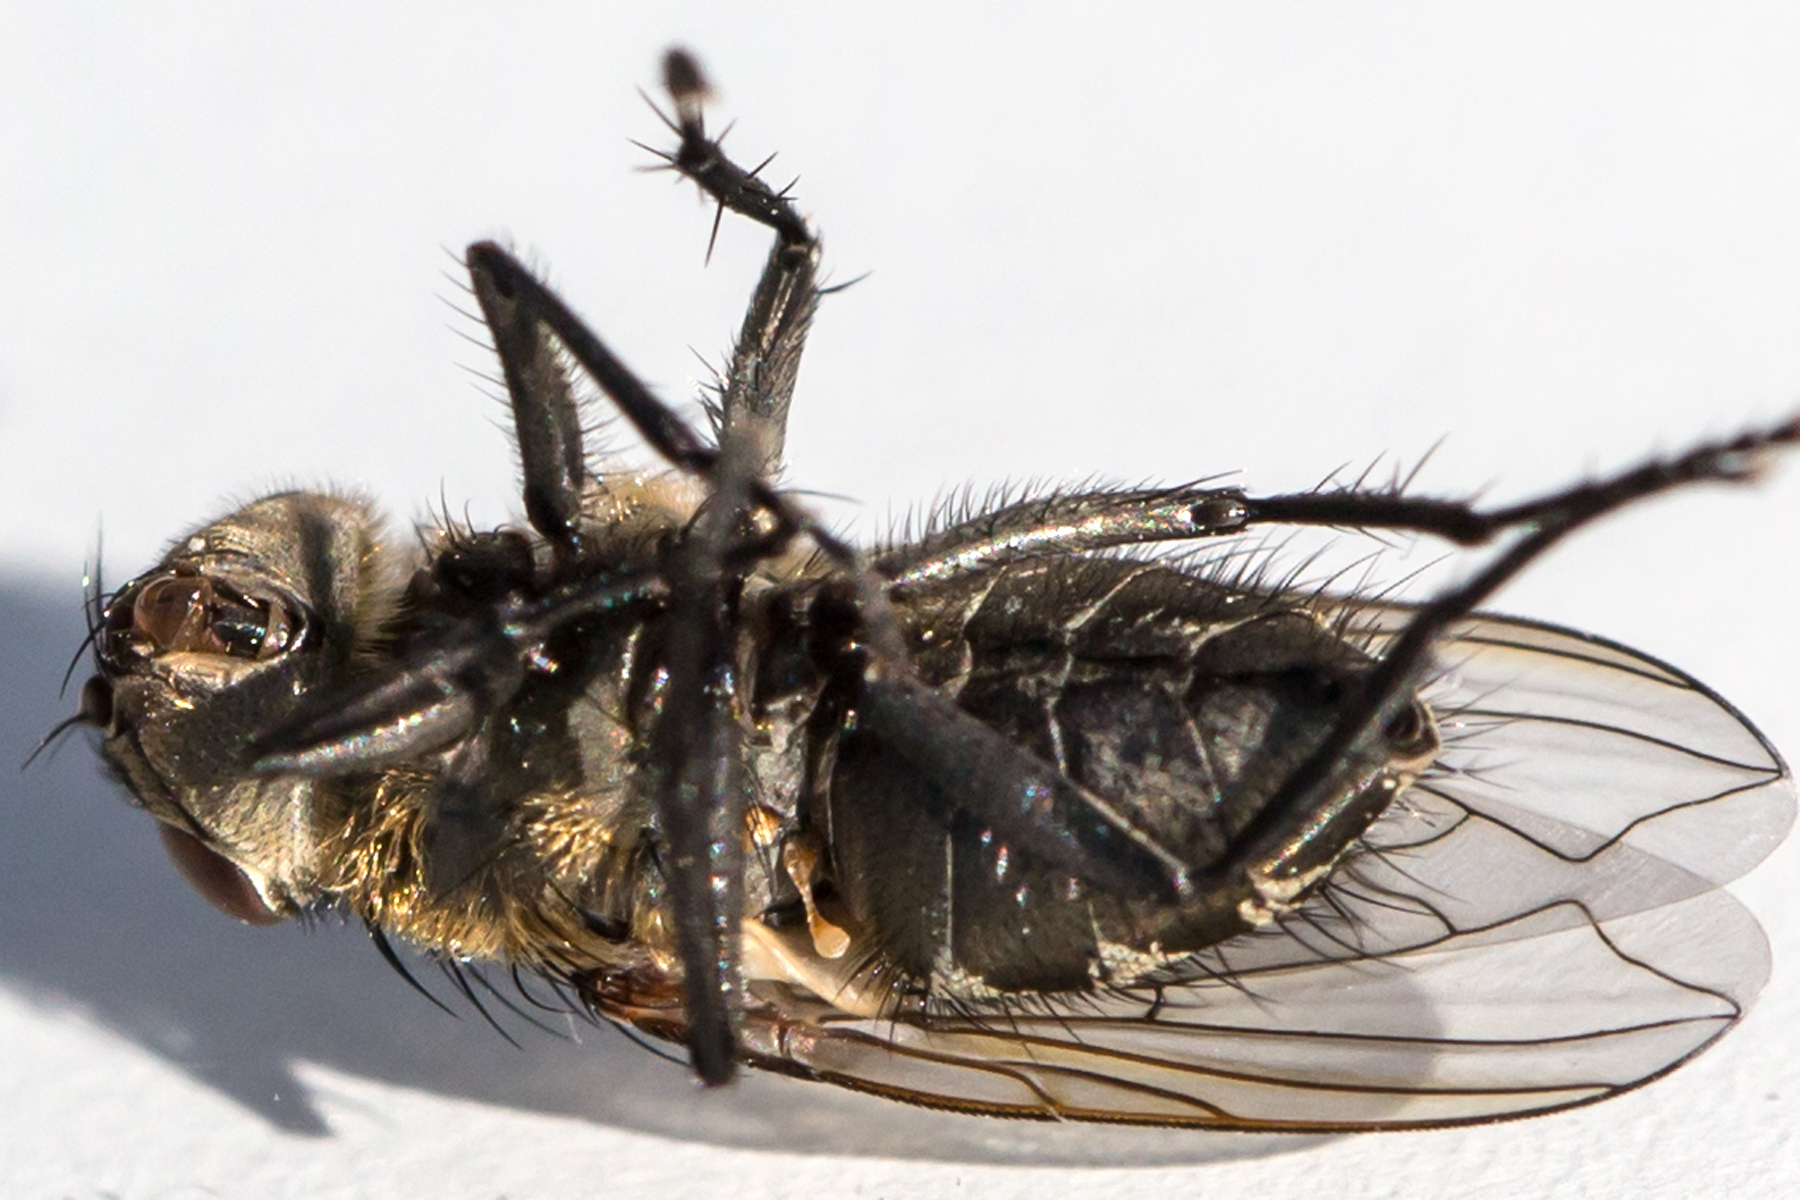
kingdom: Animalia
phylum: Arthropoda
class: Insecta
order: Diptera
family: Polleniidae
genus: Pollenia
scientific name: Pollenia
